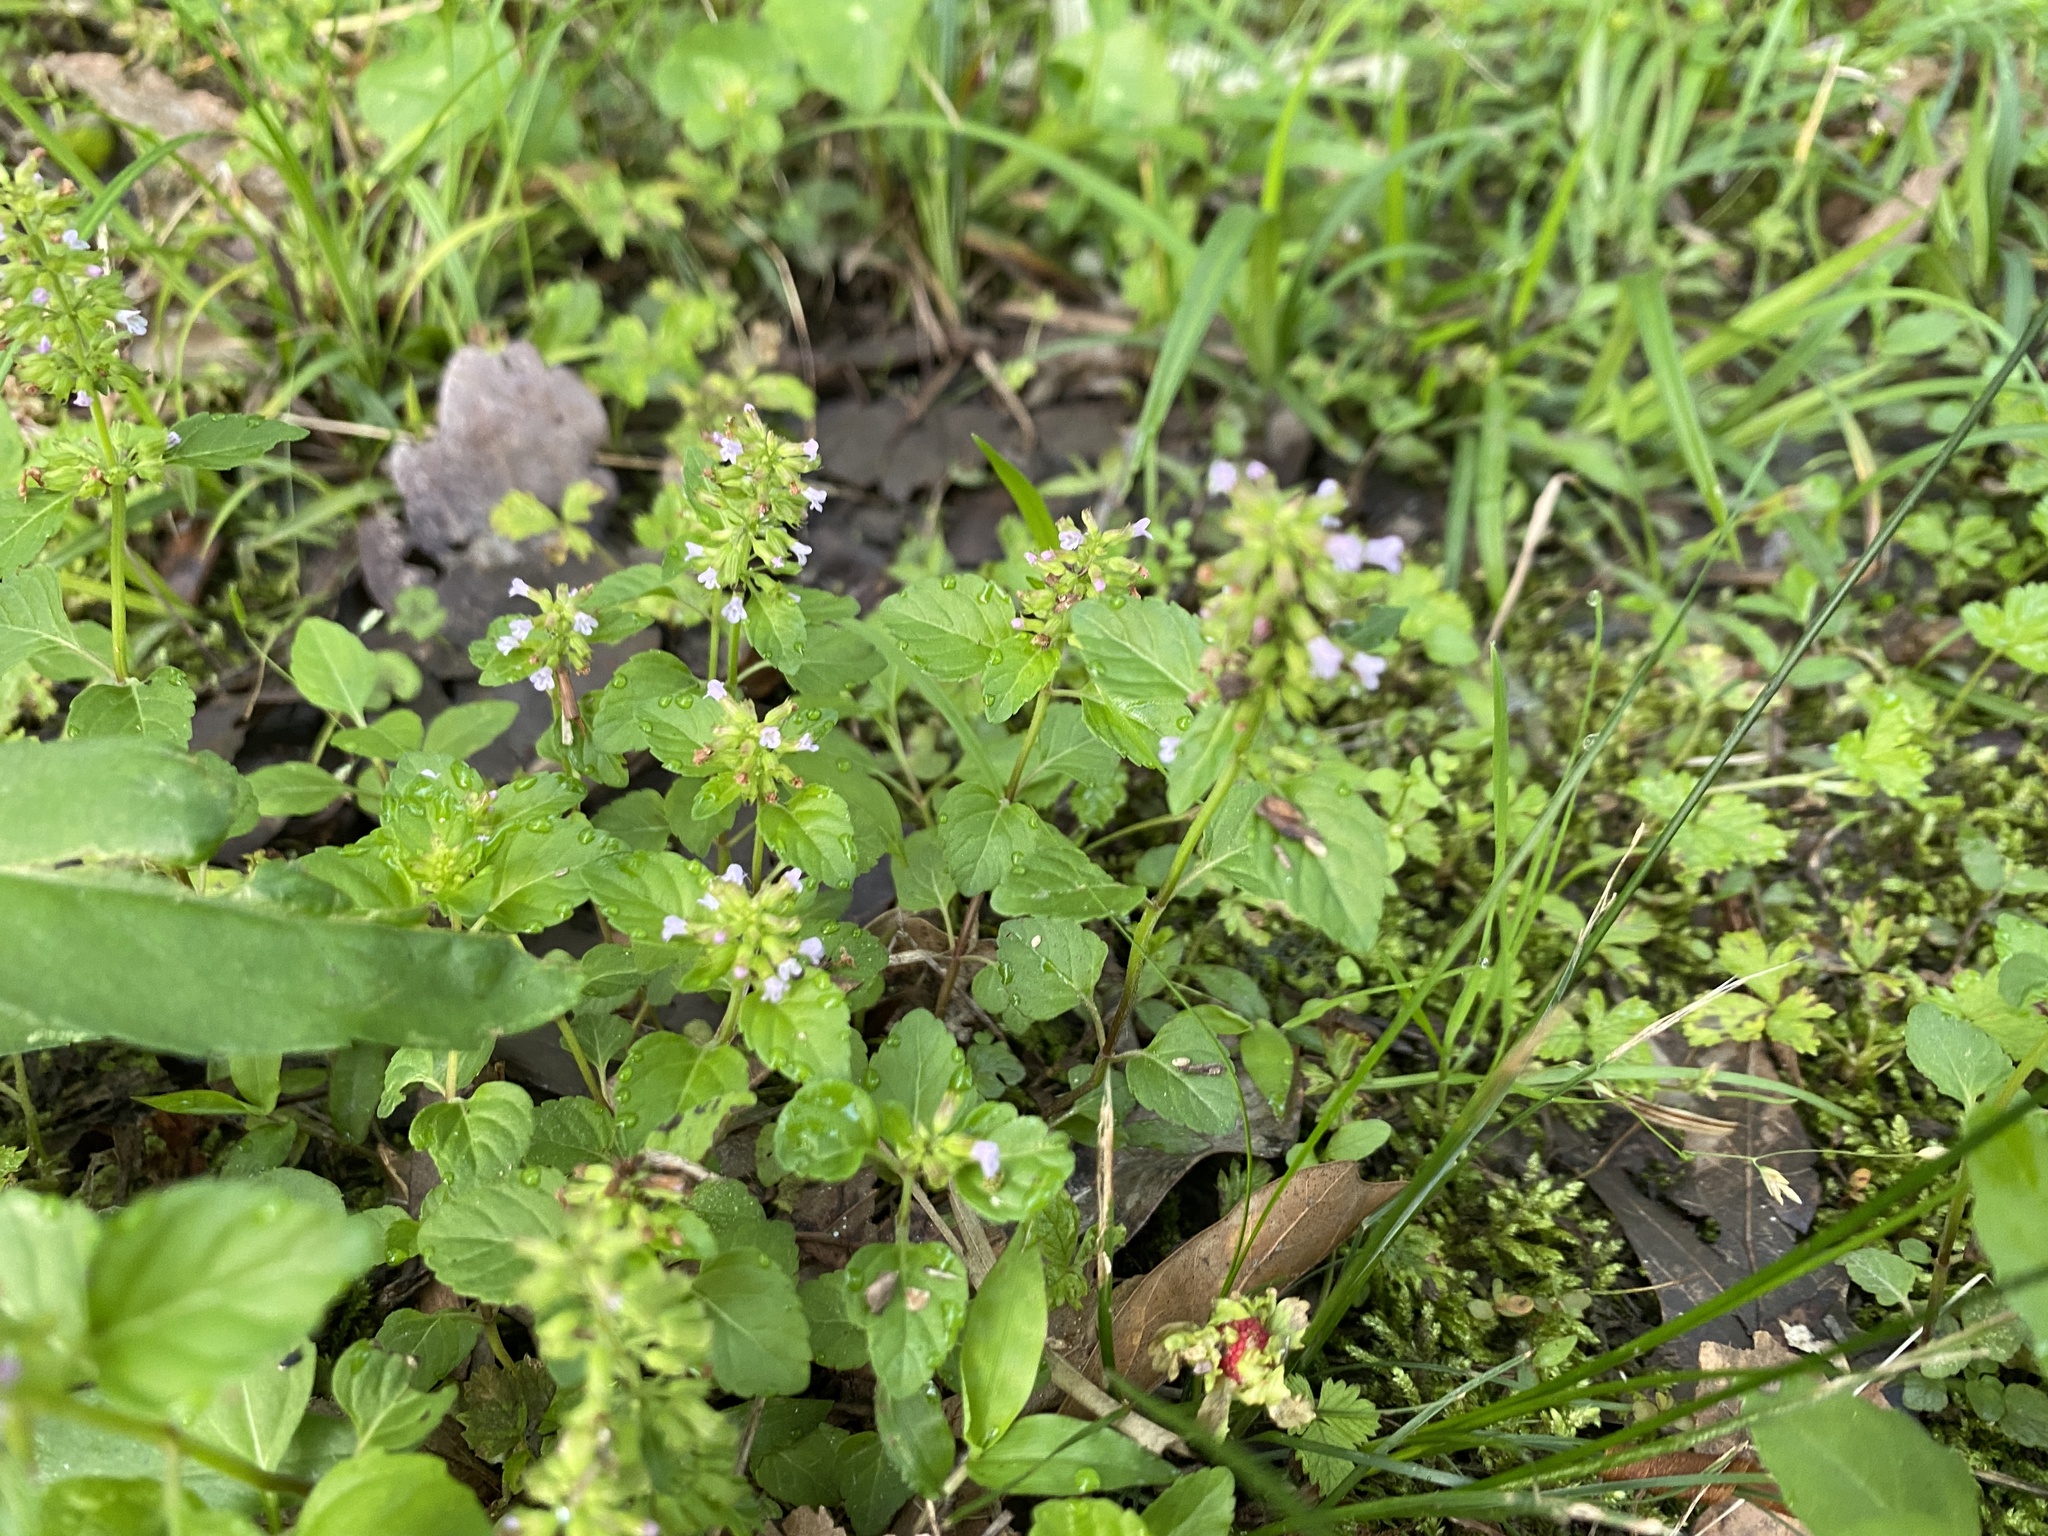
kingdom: Plantae
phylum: Tracheophyta
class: Magnoliopsida
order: Lamiales
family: Lamiaceae
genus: Clinopodium
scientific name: Clinopodium gracile
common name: Slender wild basil
